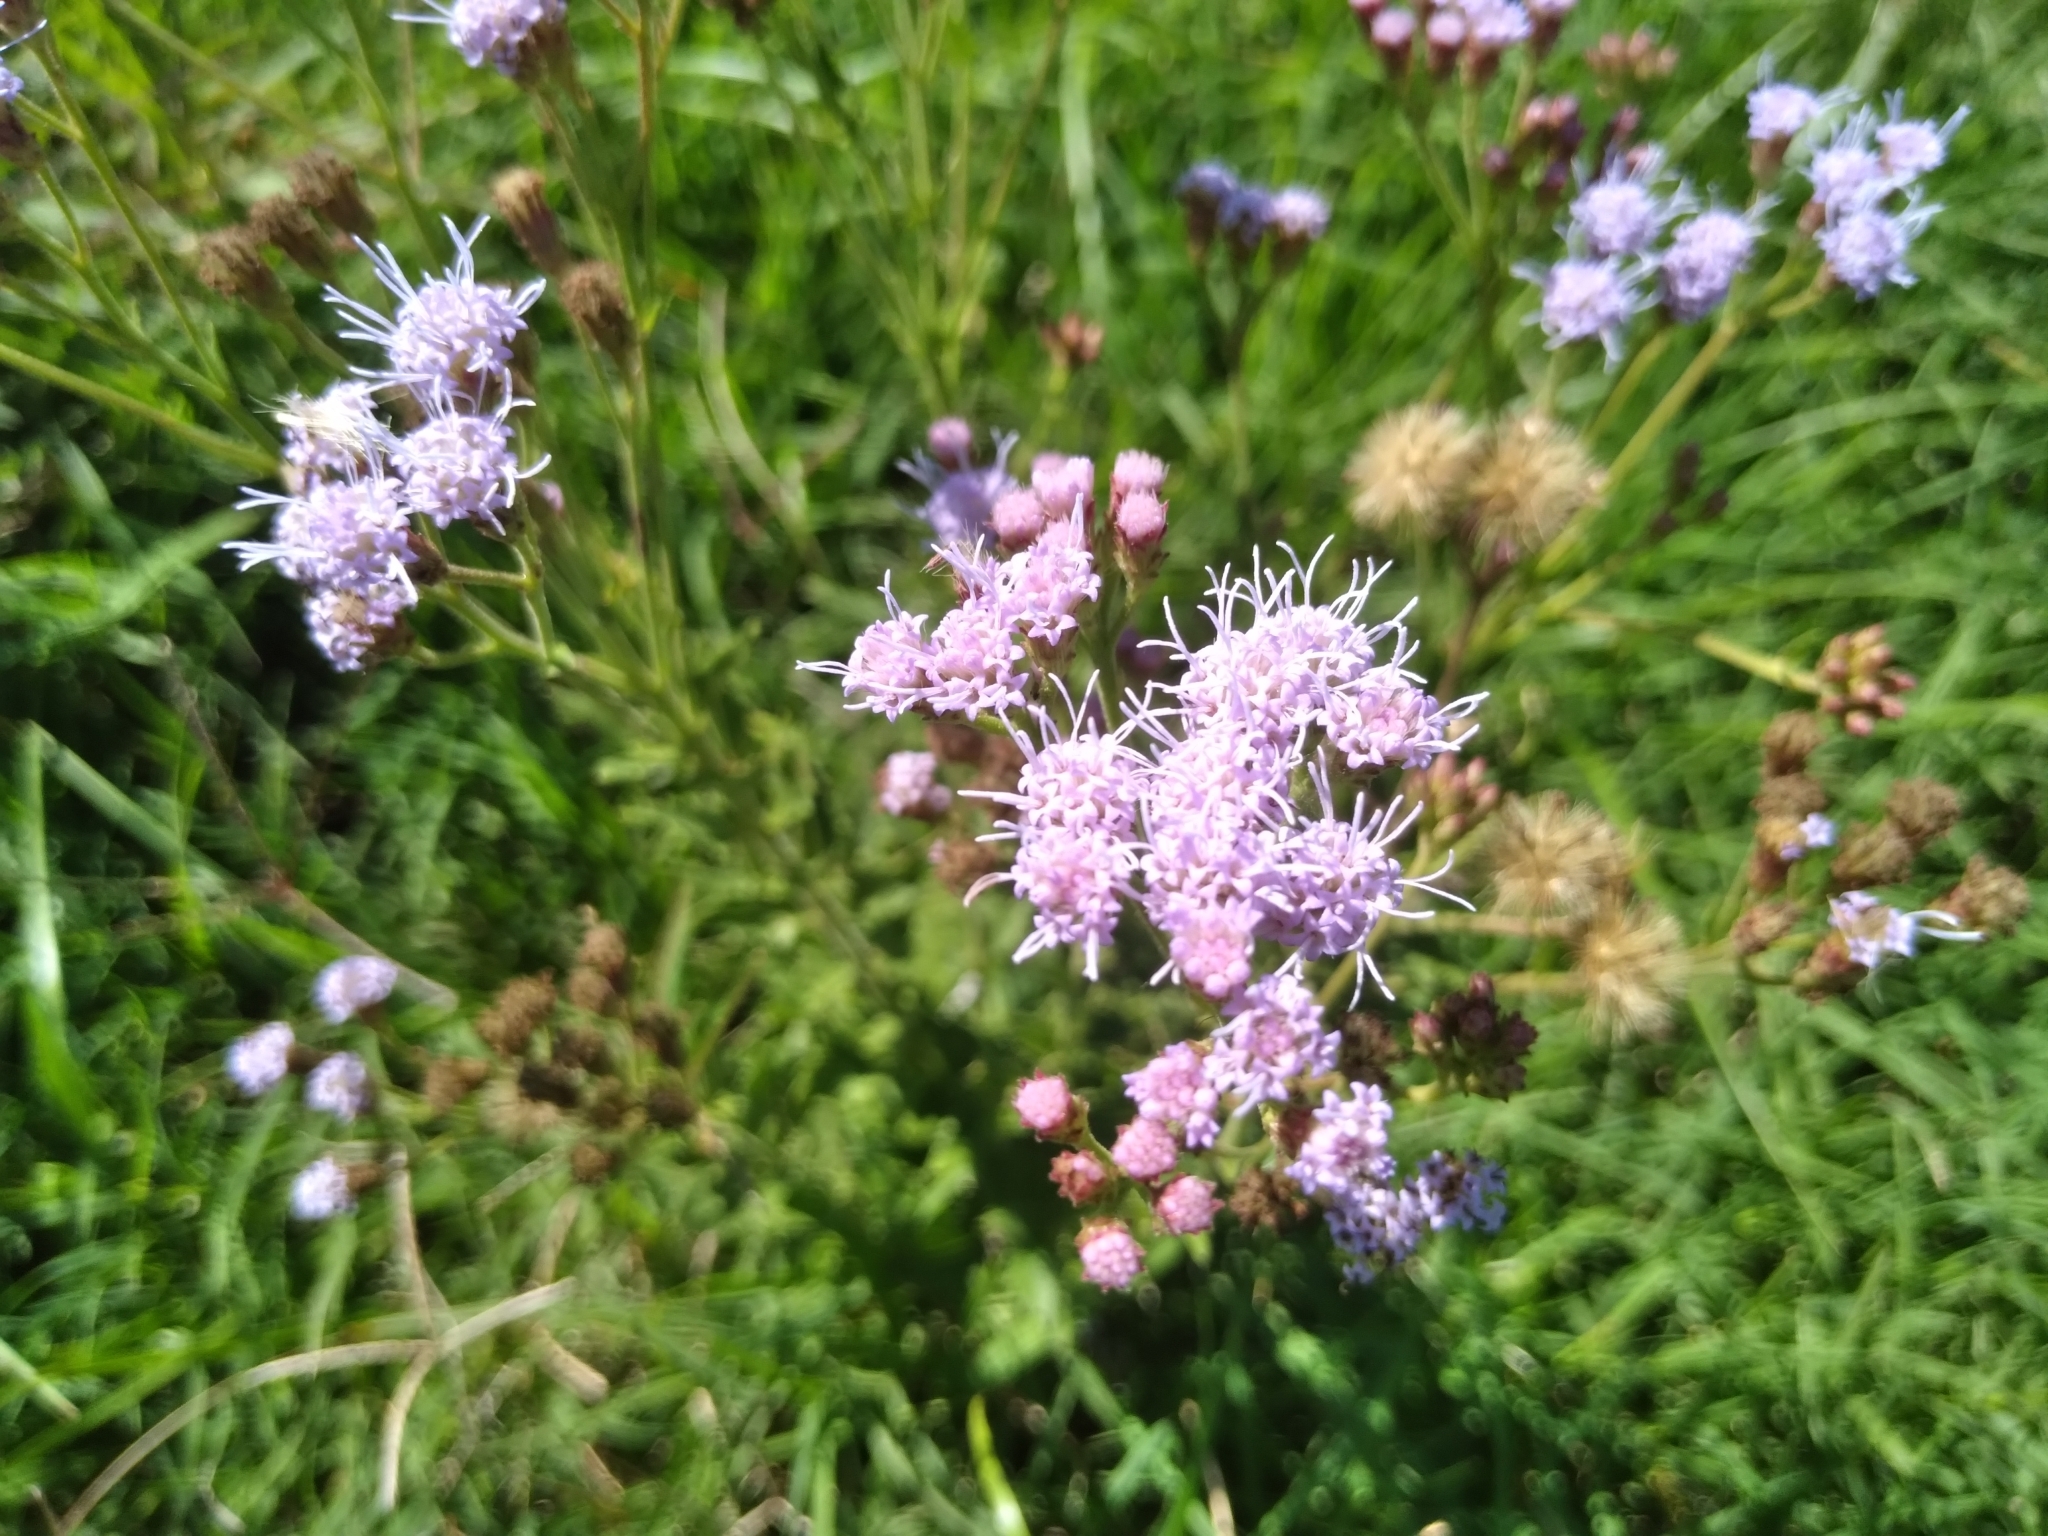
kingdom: Plantae
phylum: Tracheophyta
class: Magnoliopsida
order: Asterales
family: Asteraceae
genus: Chromolaena
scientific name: Chromolaena hirsuta
